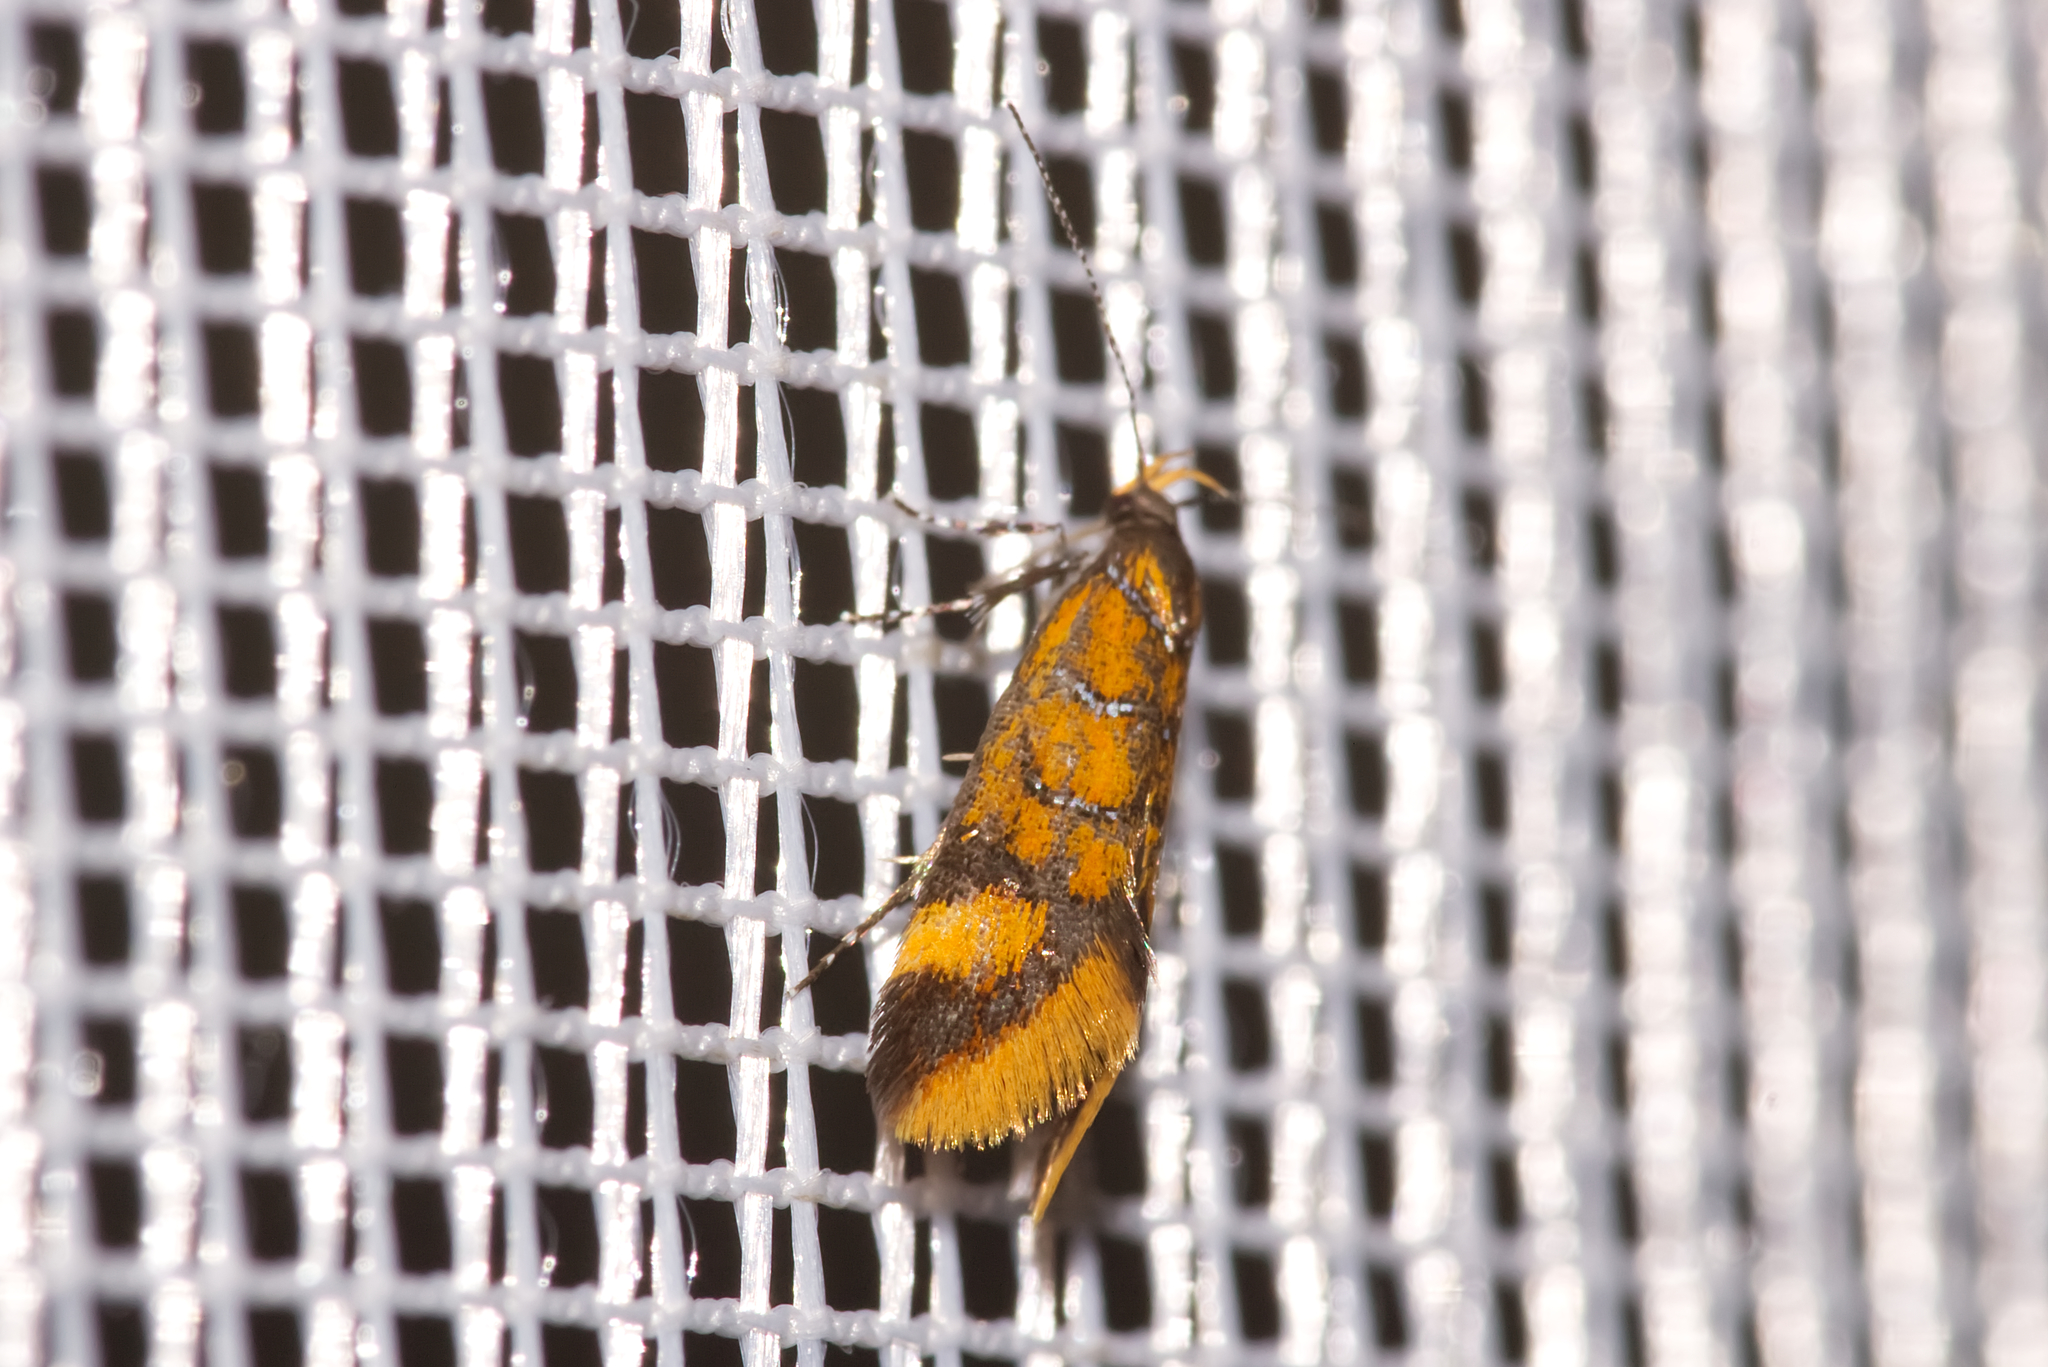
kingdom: Animalia
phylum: Arthropoda
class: Insecta
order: Lepidoptera
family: Oecophoridae
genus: Schiffermuelleria
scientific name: Schiffermuelleria procerella
